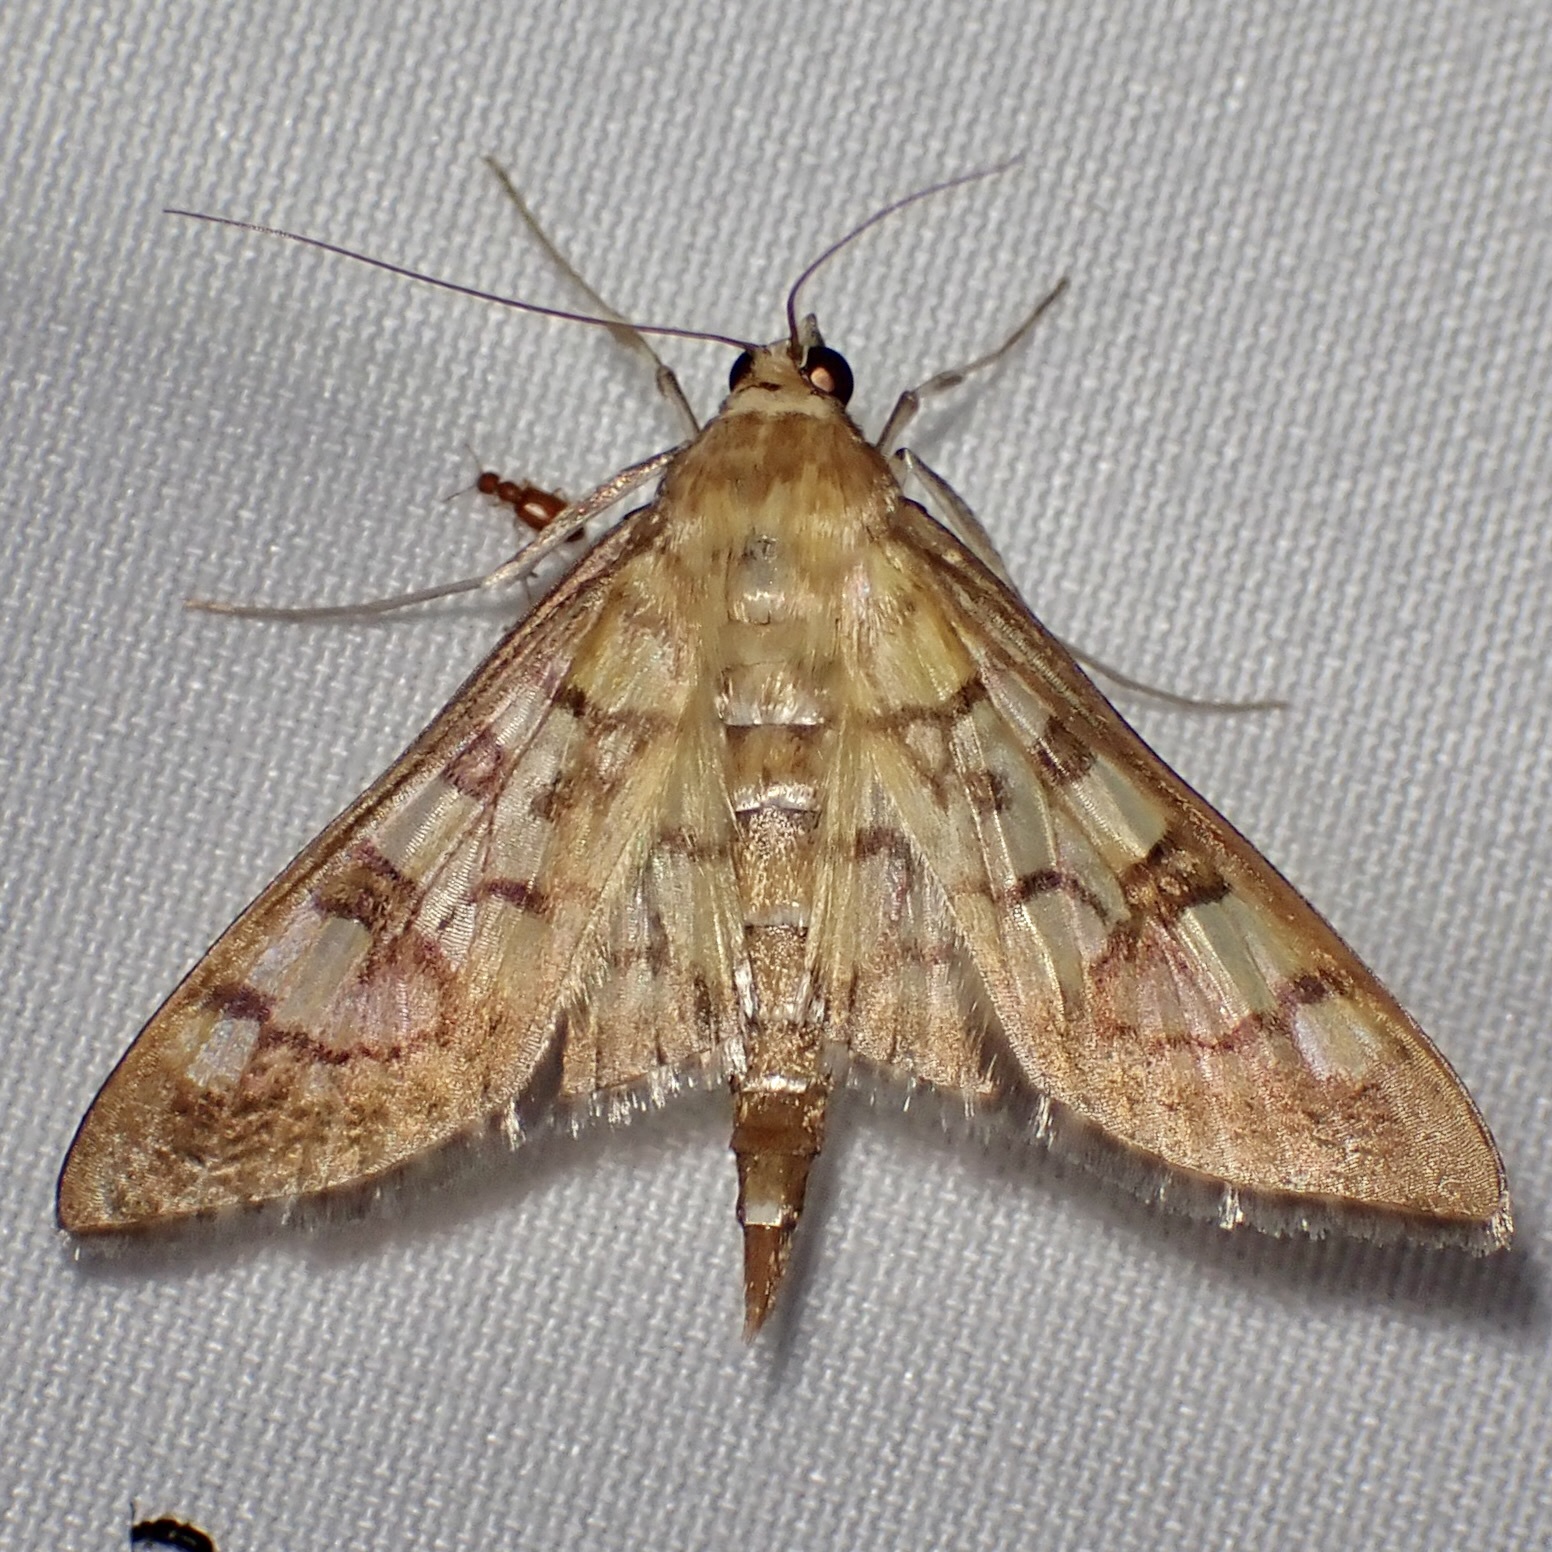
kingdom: Animalia
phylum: Arthropoda
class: Insecta
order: Lepidoptera
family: Crambidae
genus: Mimorista
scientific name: Mimorista subcostalis
